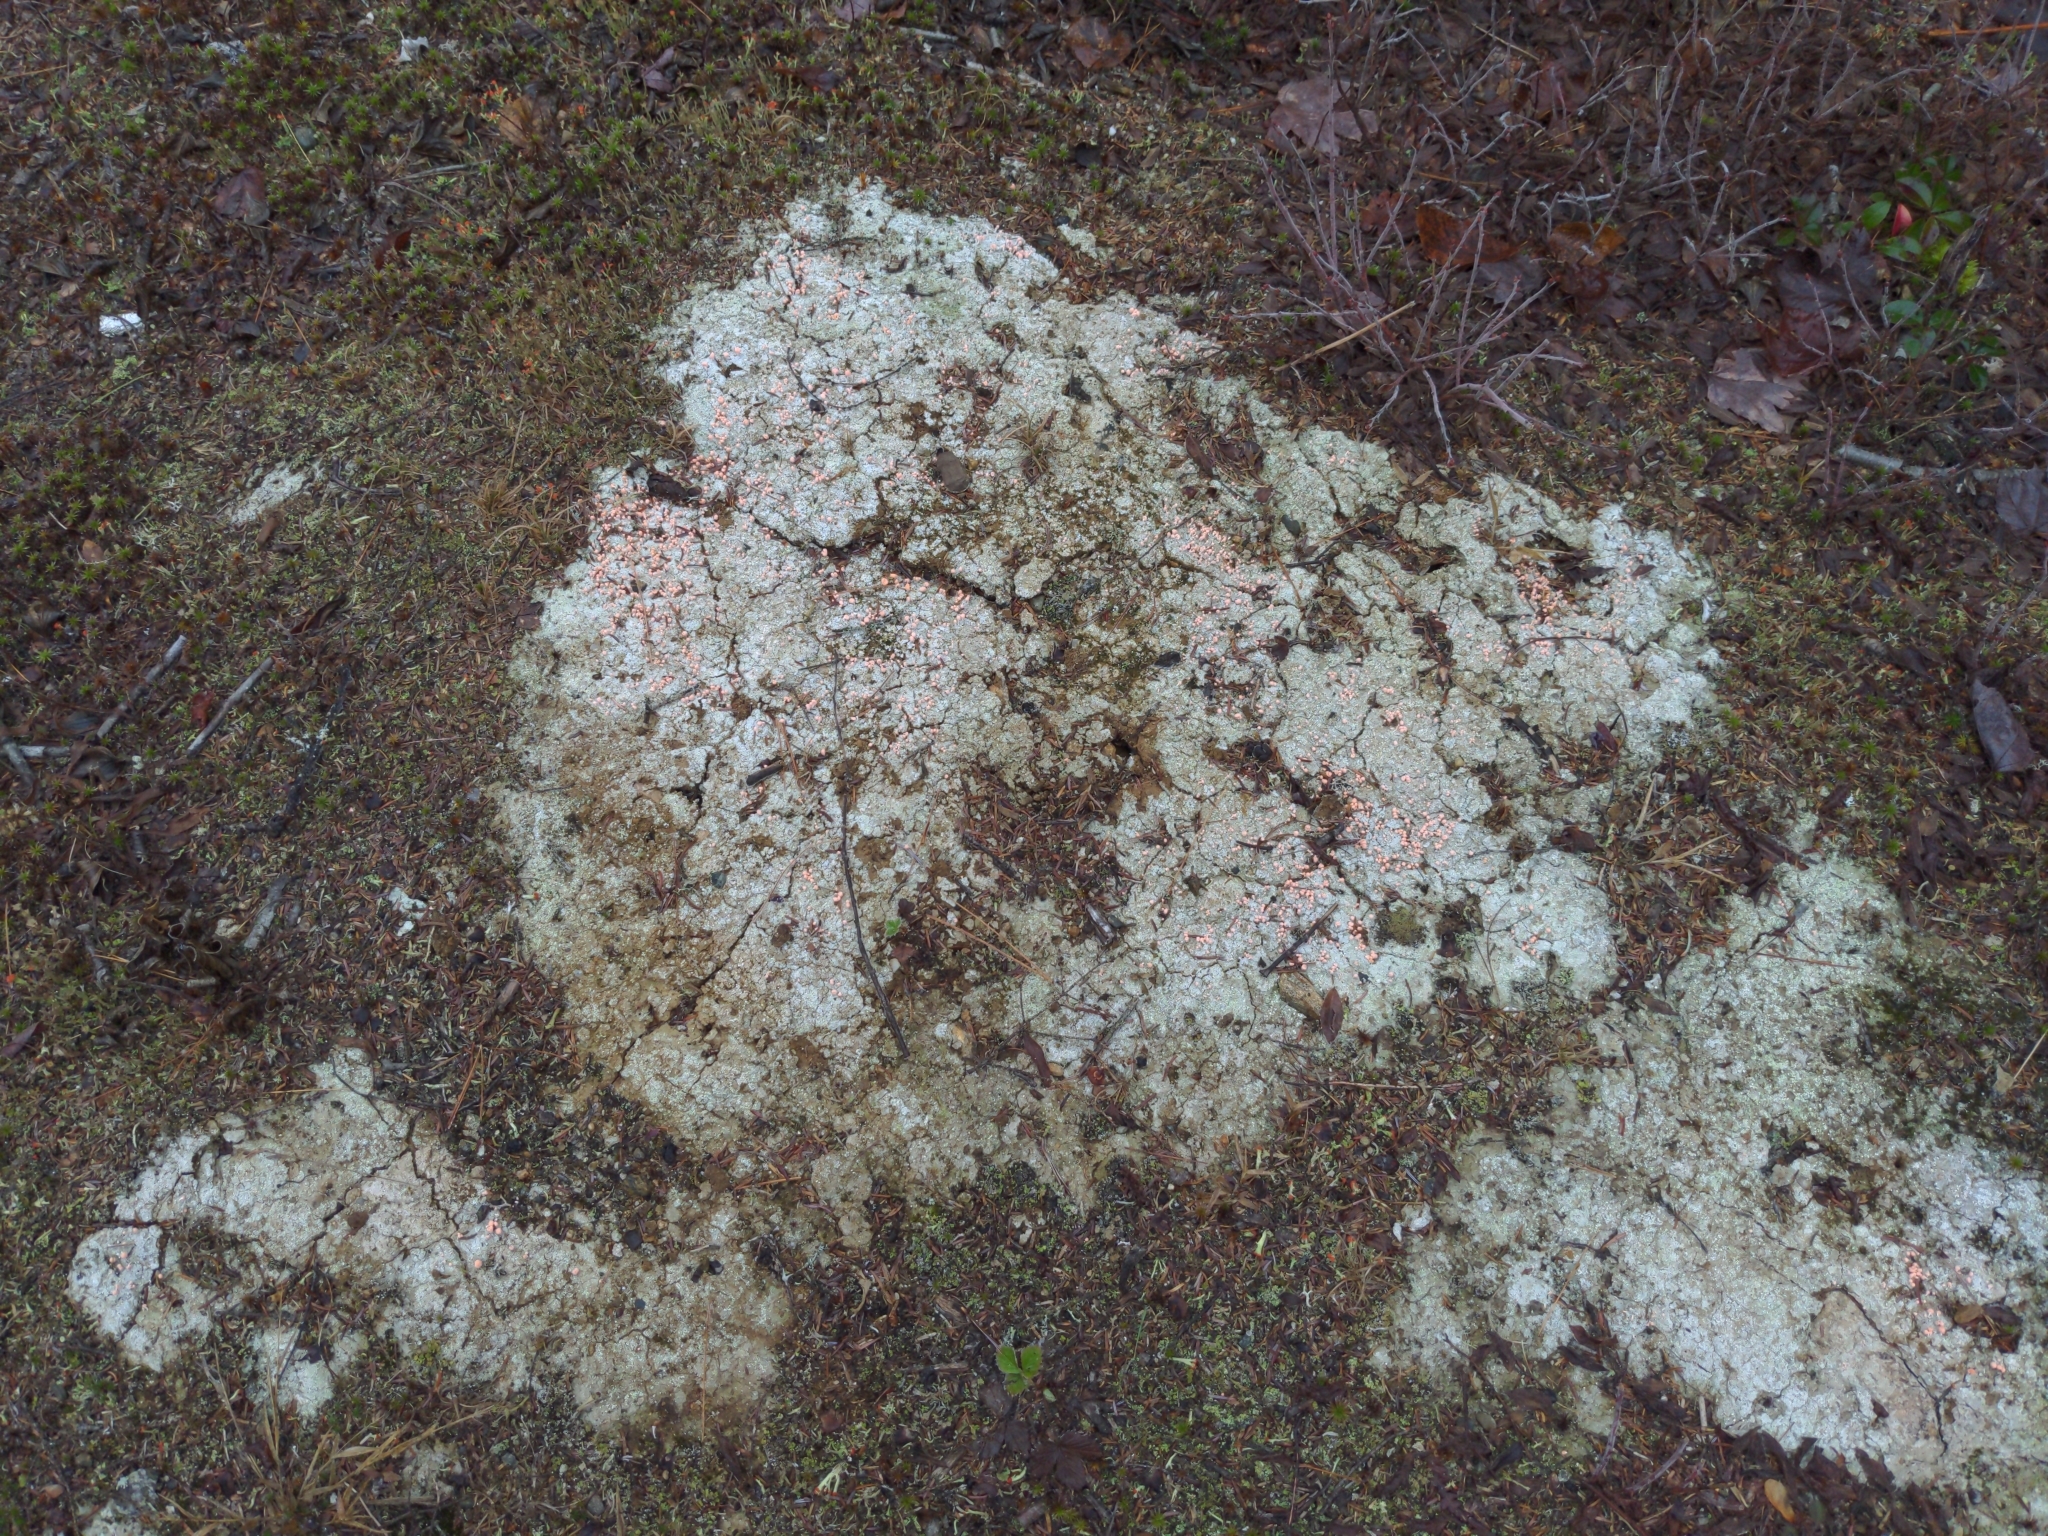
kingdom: Fungi
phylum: Ascomycota
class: Lecanoromycetes
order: Pertusariales
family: Icmadophilaceae
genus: Dibaeis
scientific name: Dibaeis baeomyces
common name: Pink earth lichen
